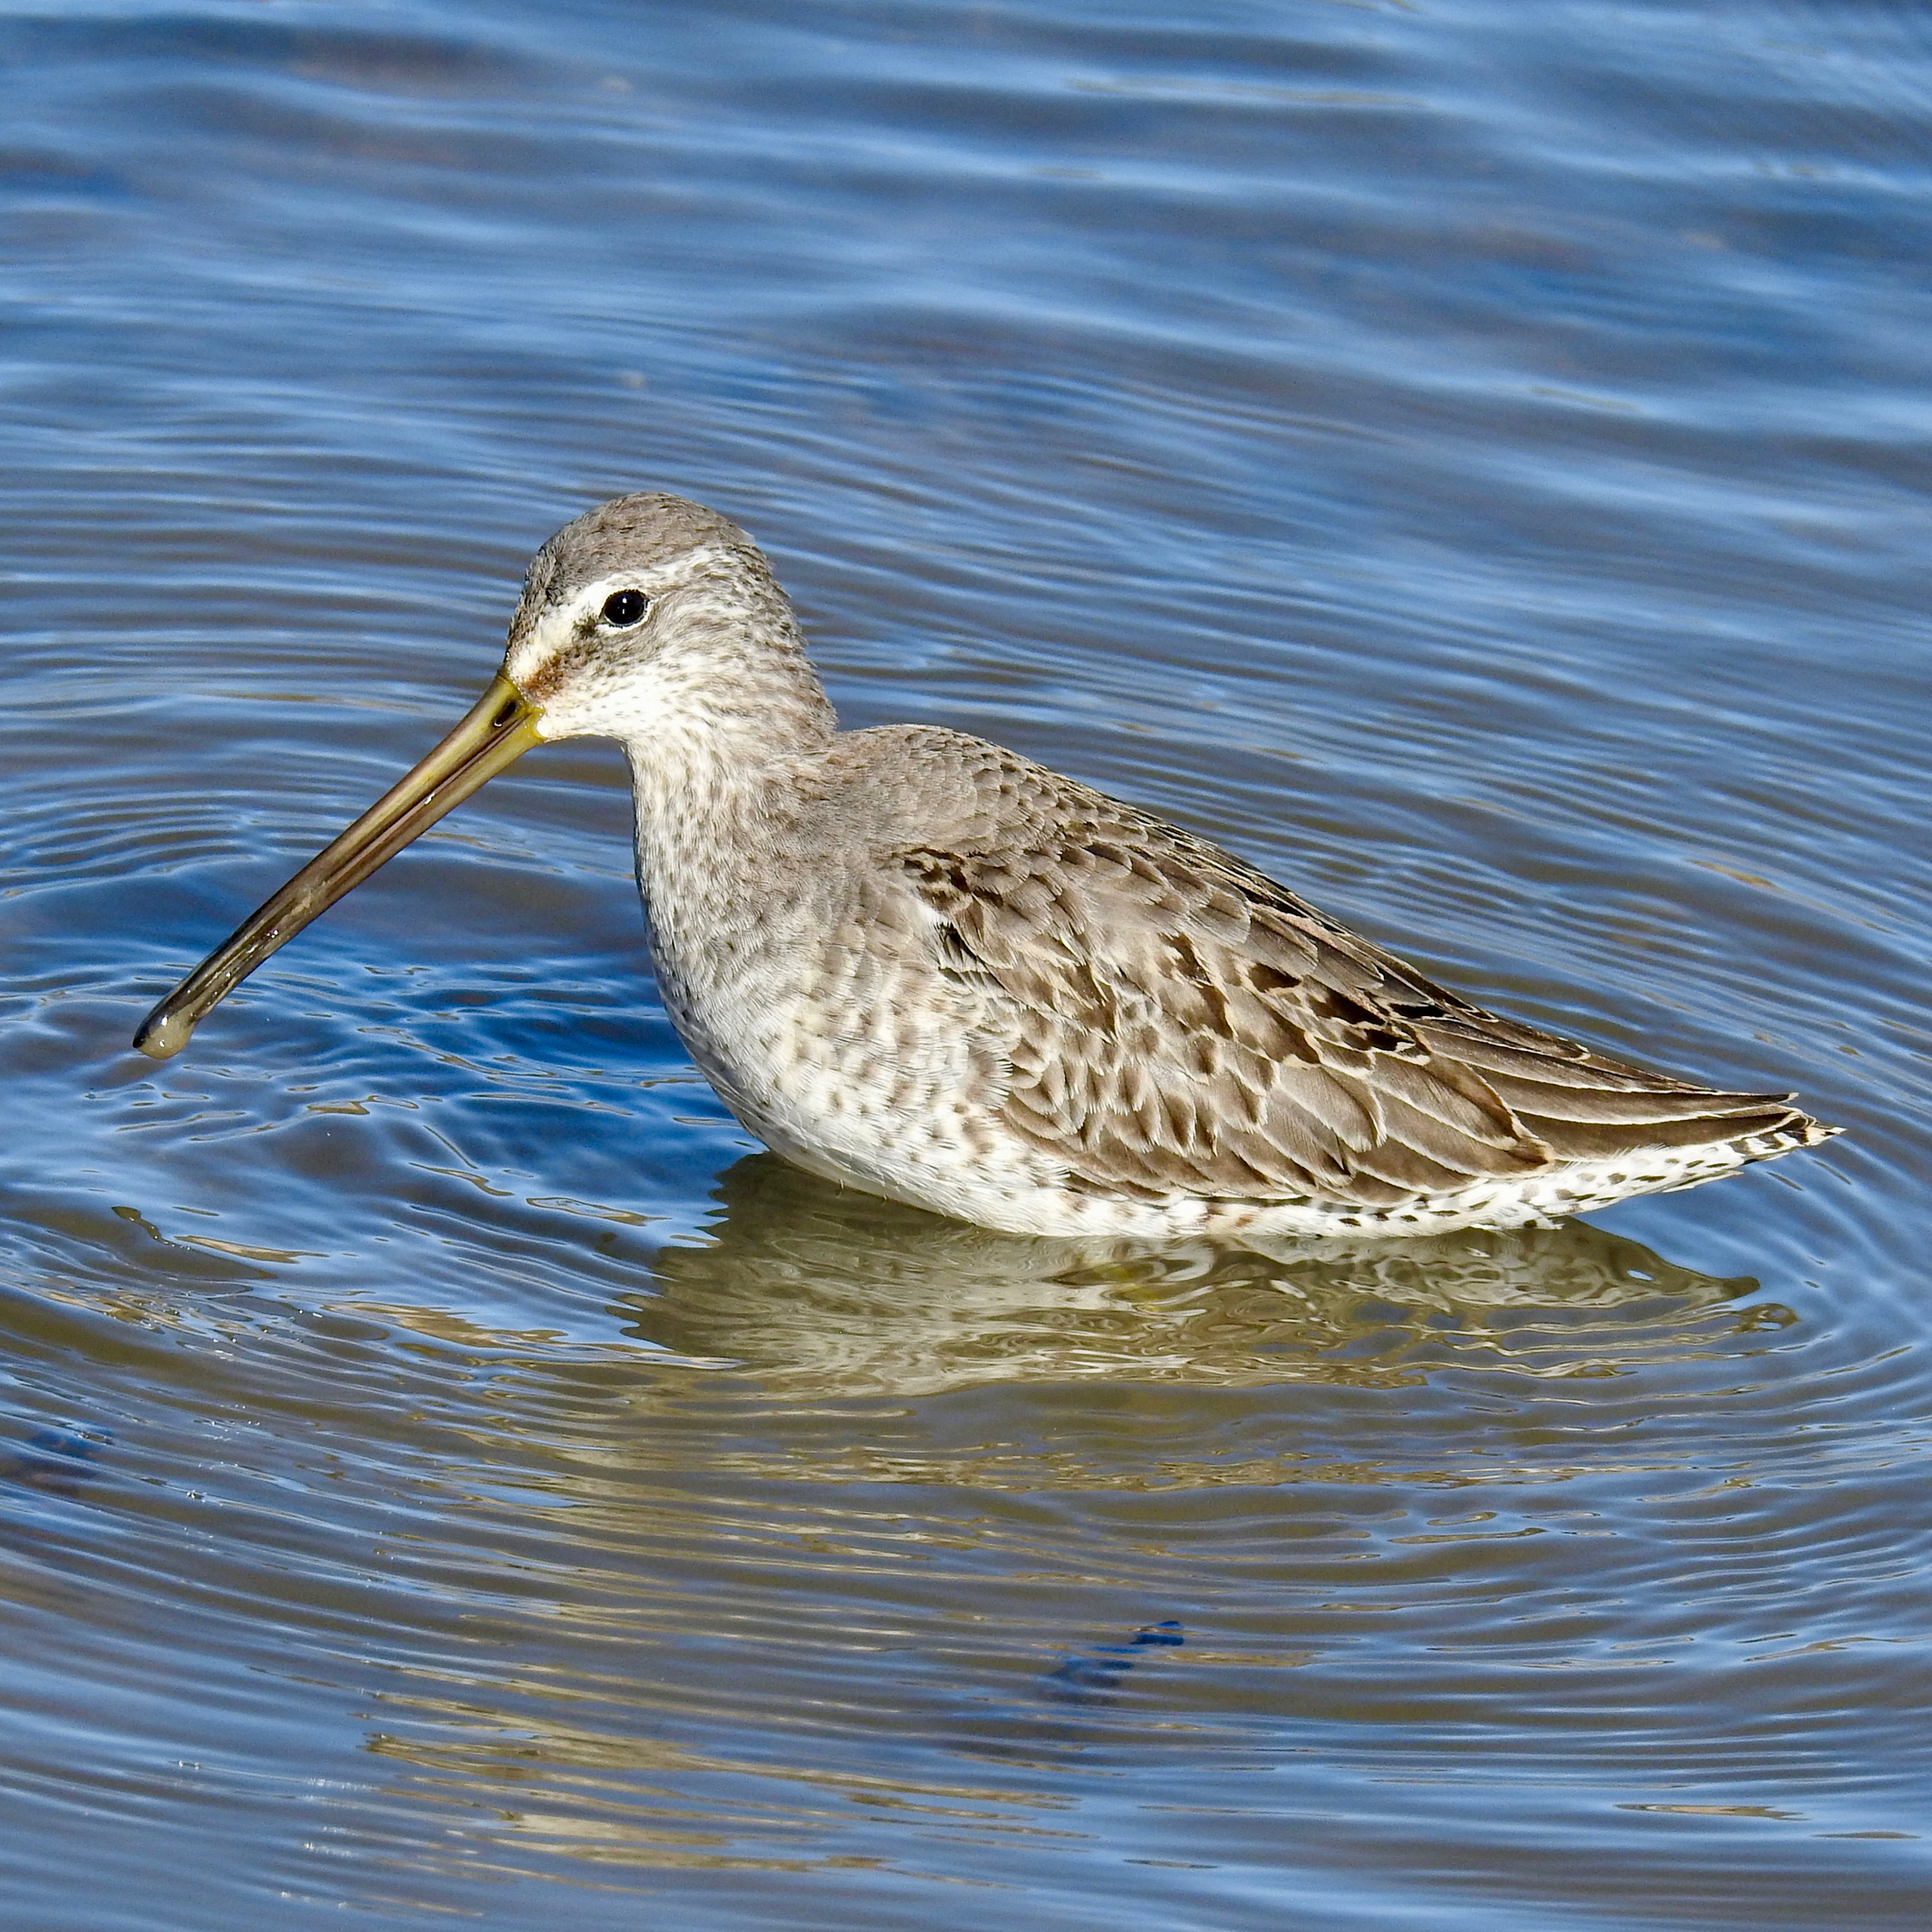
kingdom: Animalia
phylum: Chordata
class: Aves
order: Charadriiformes
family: Scolopacidae
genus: Limnodromus
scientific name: Limnodromus scolopaceus
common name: Long-billed dowitcher
